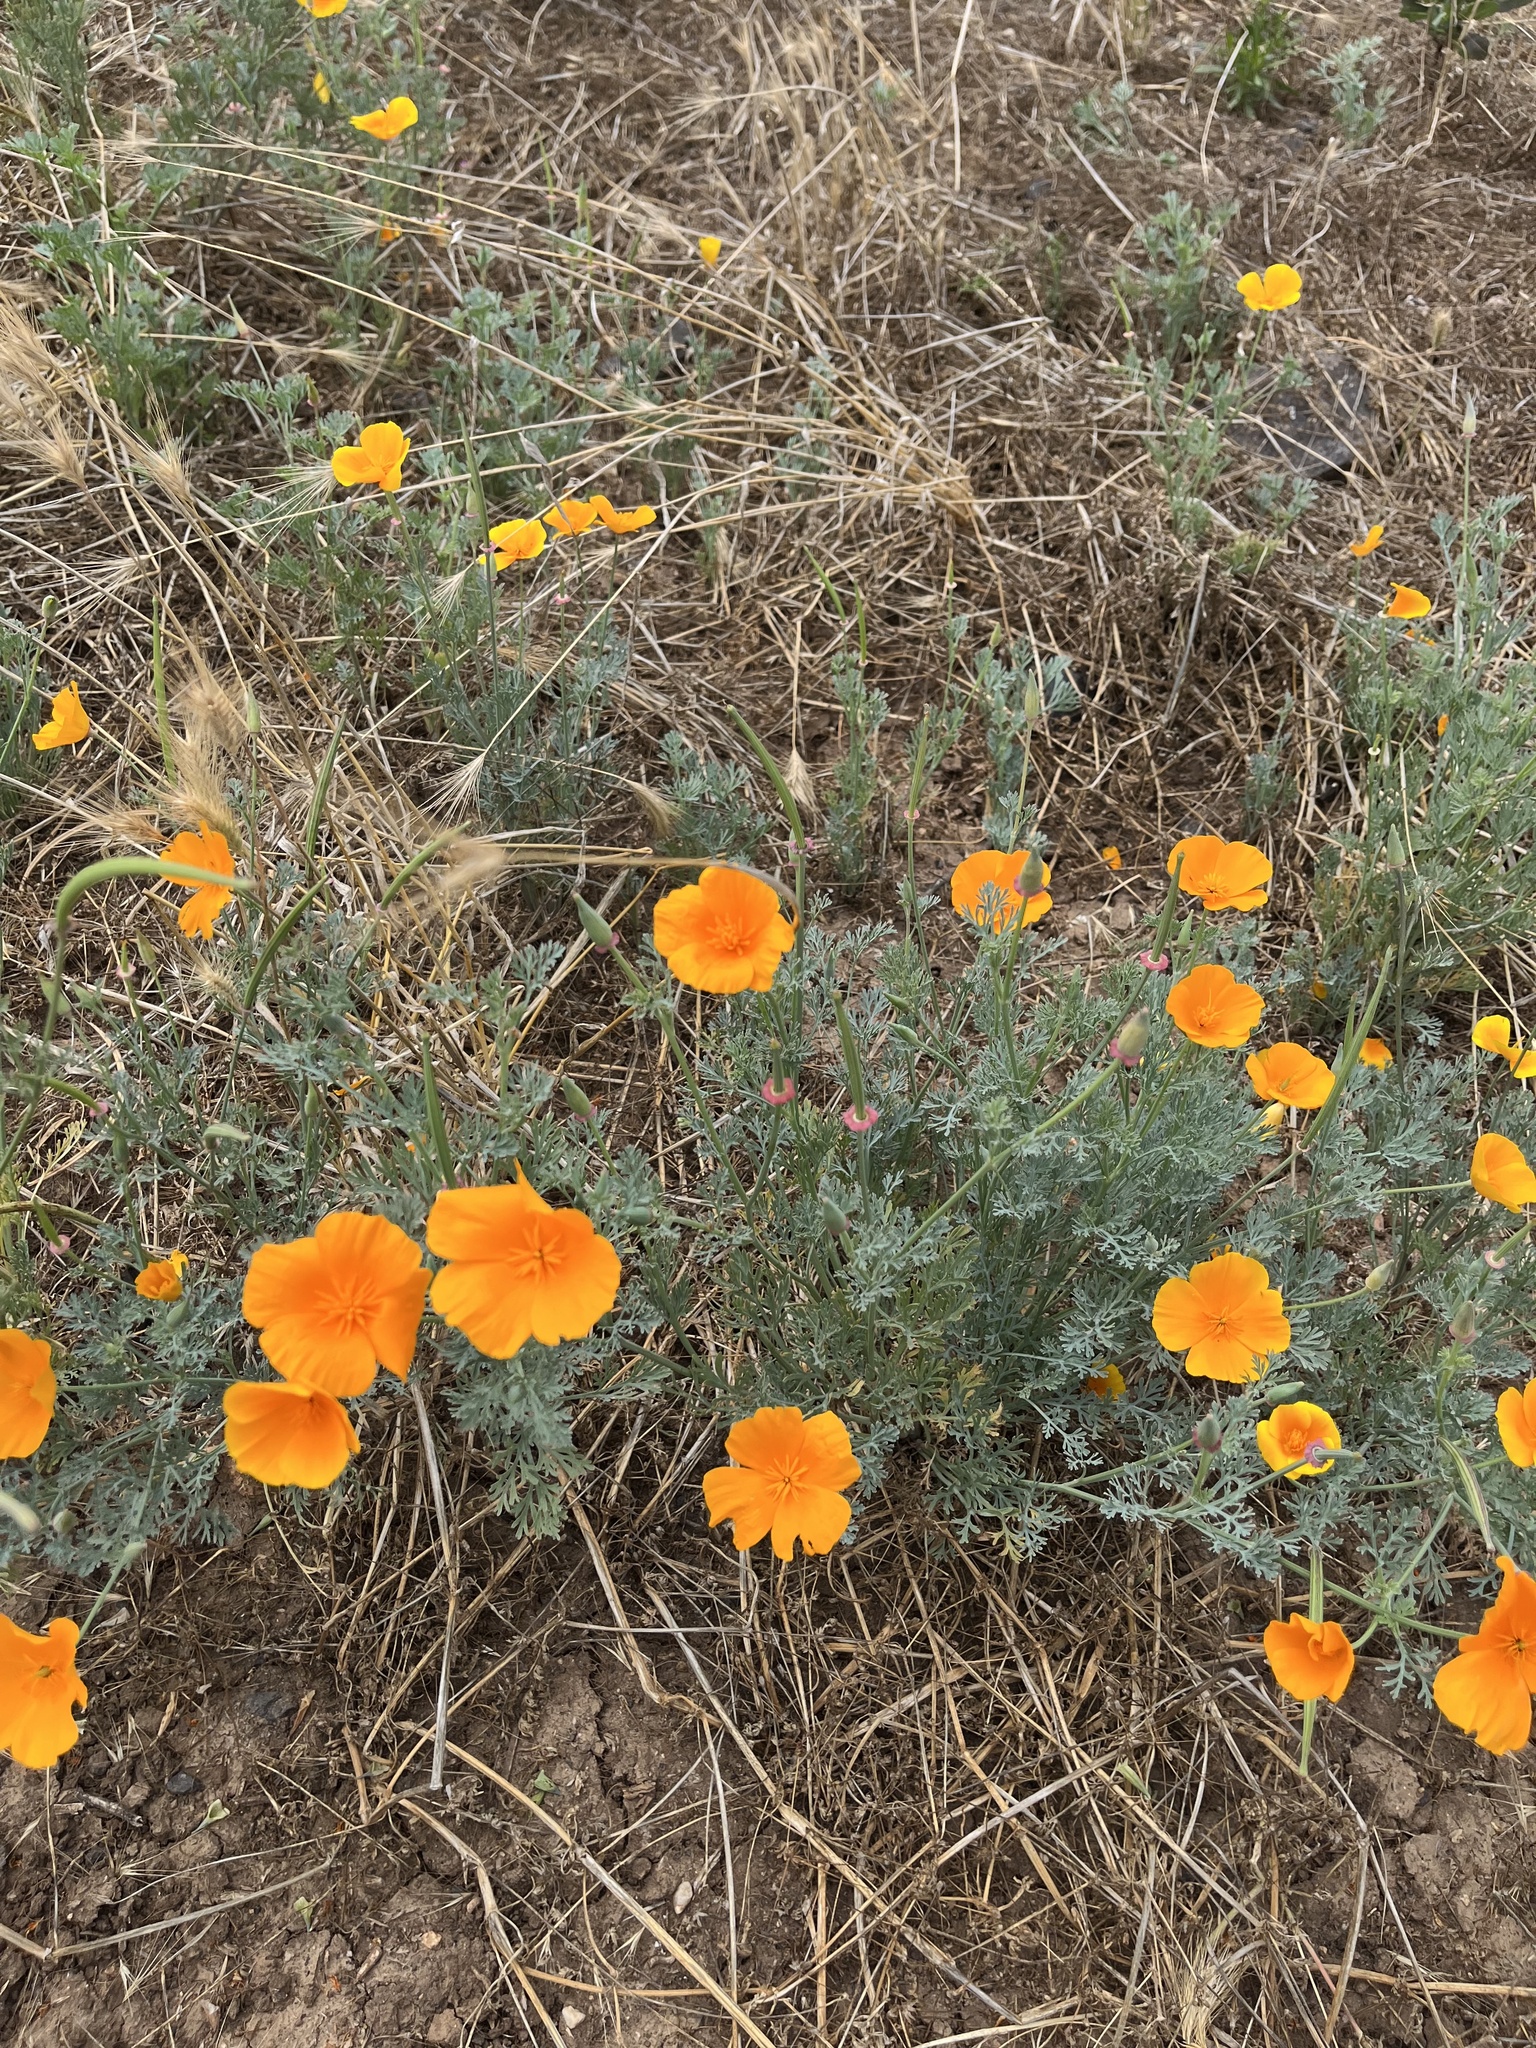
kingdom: Plantae
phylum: Tracheophyta
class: Magnoliopsida
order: Ranunculales
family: Papaveraceae
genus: Eschscholzia
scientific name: Eschscholzia californica
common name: California poppy
